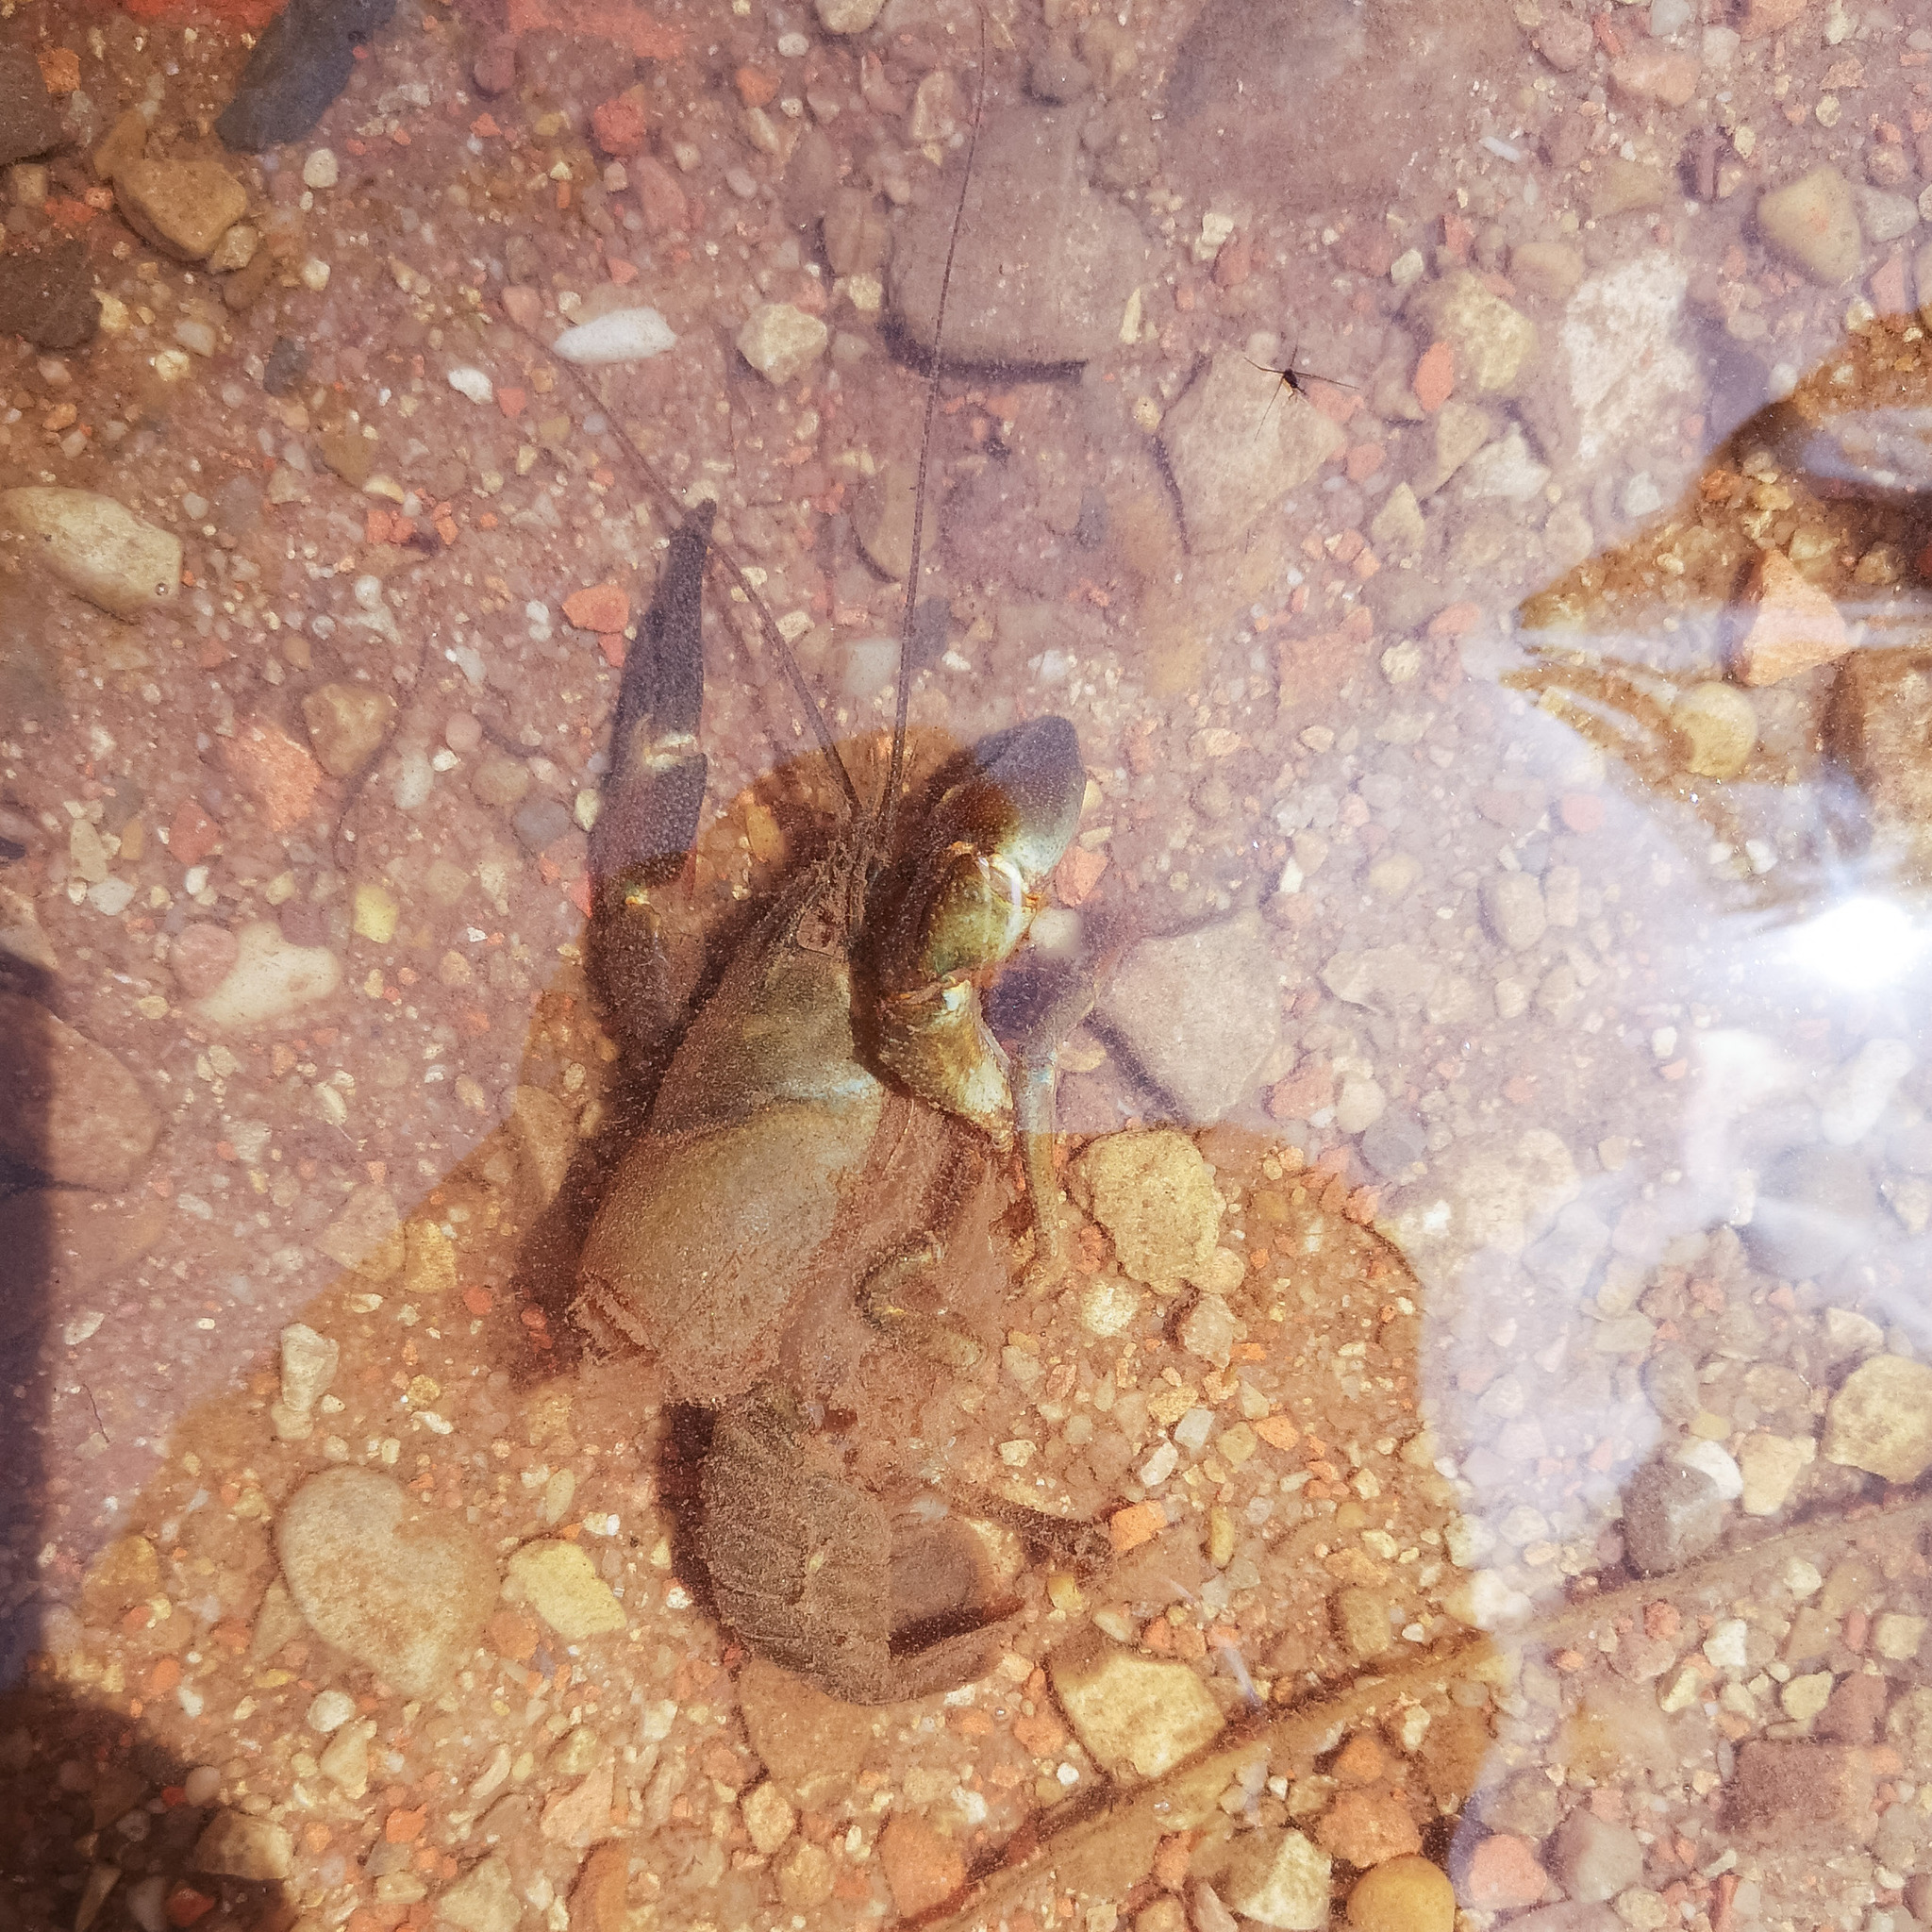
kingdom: Animalia
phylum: Arthropoda
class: Malacostraca
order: Decapoda
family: Astacidae
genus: Pacifastacus
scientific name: Pacifastacus leniusculus
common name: Signal crayfish
